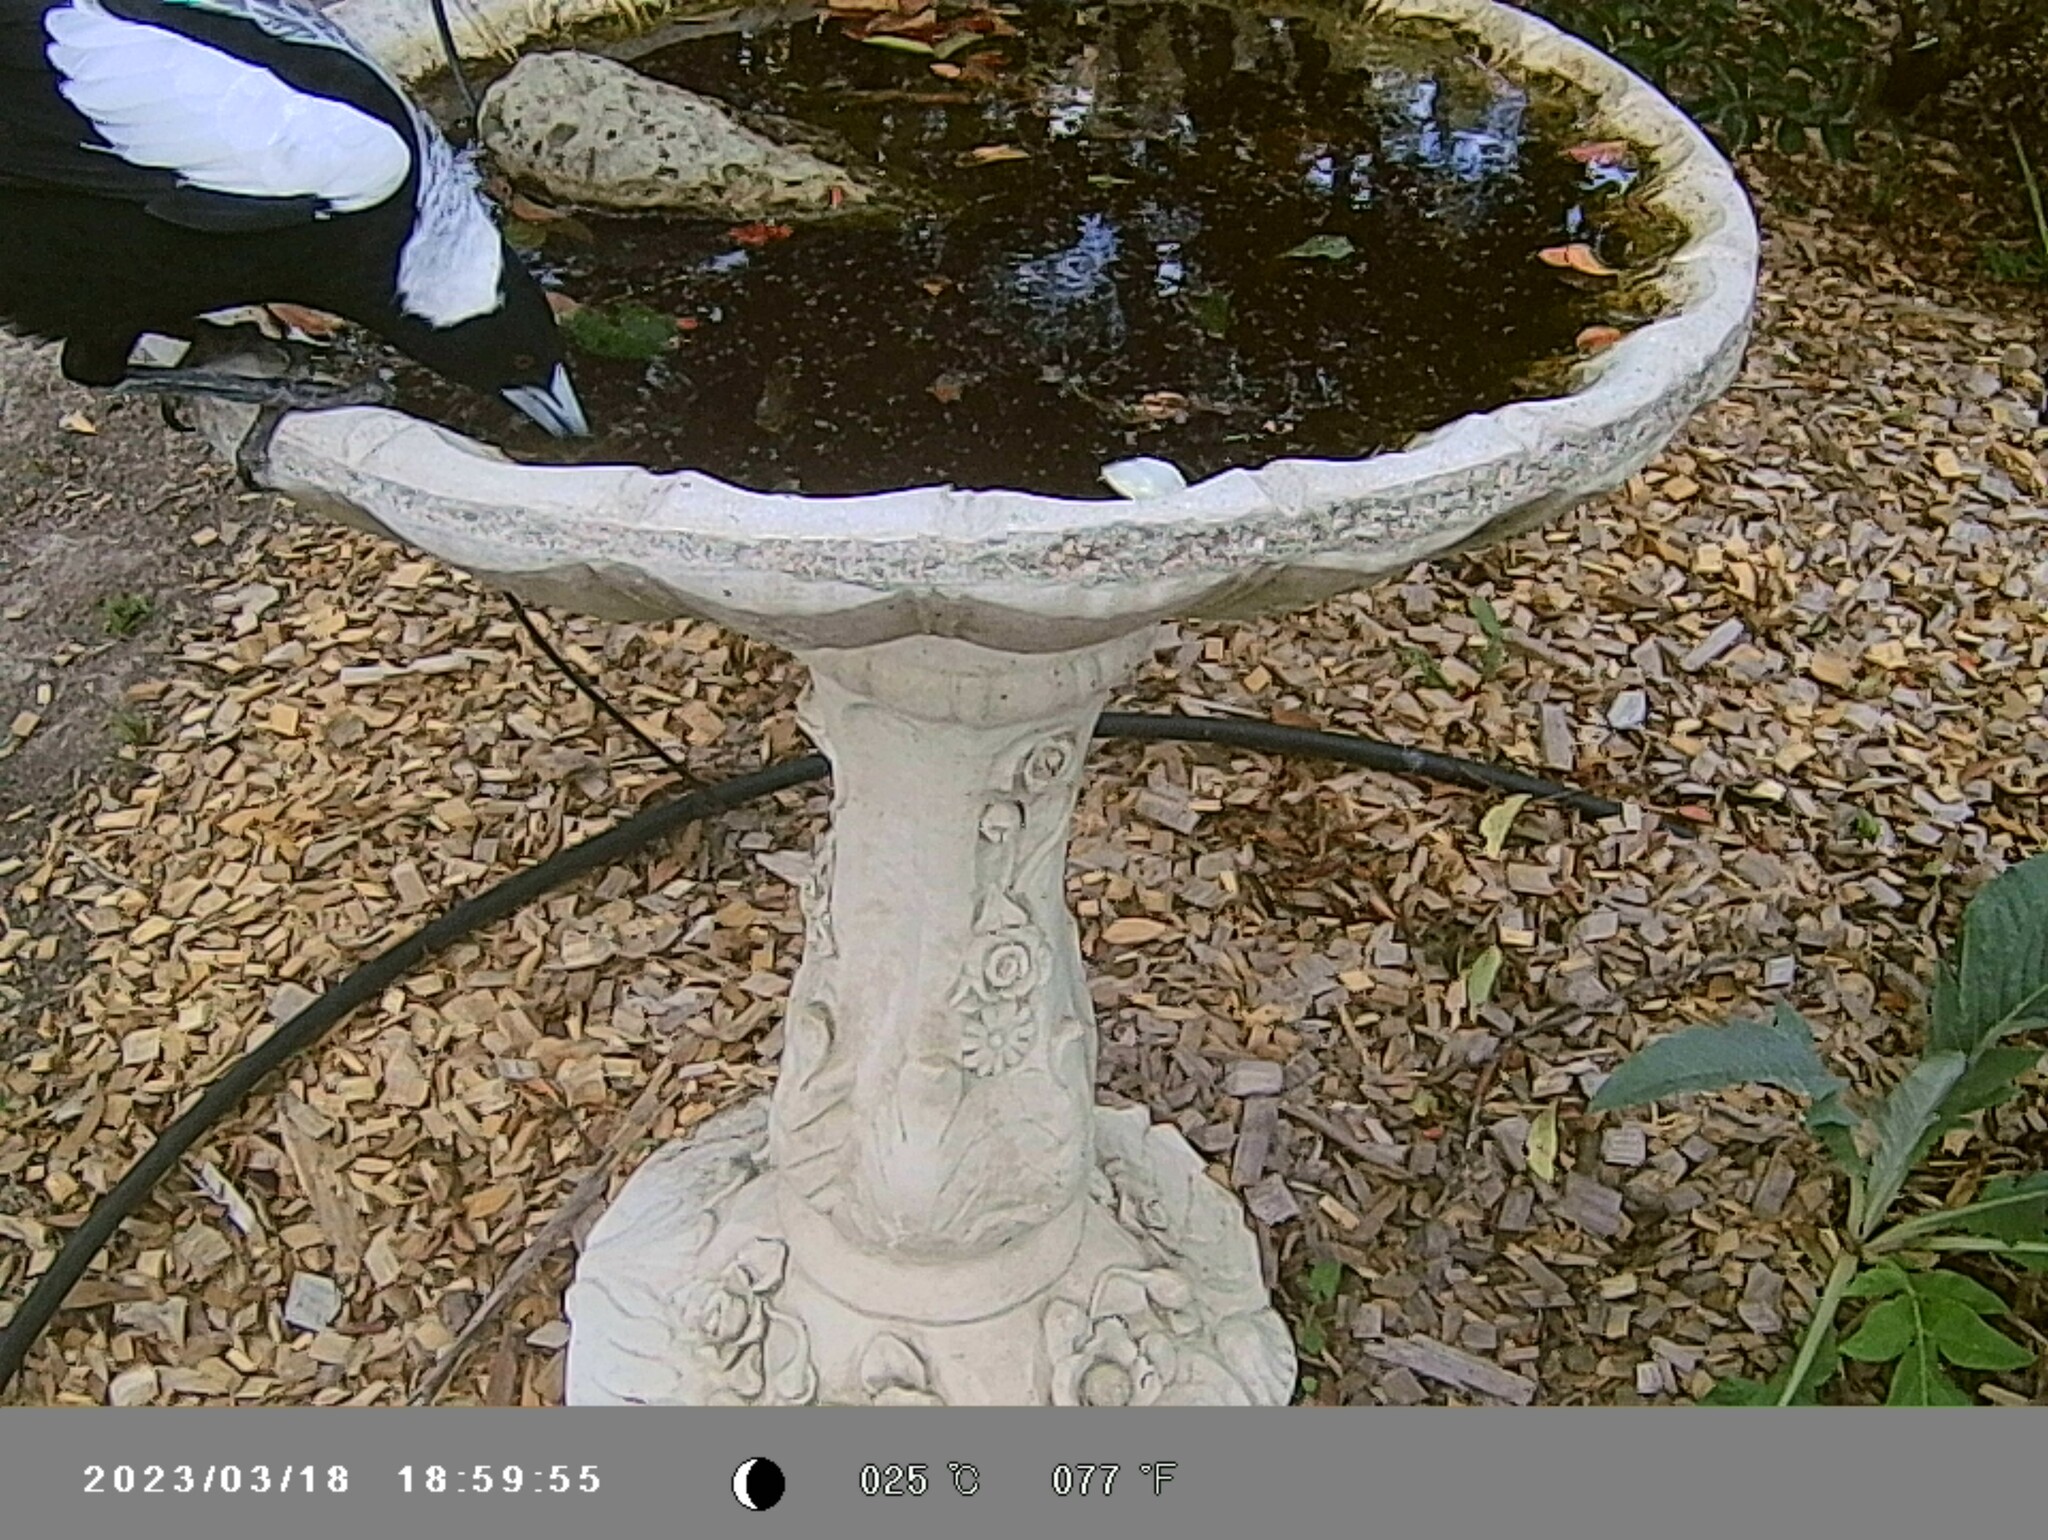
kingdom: Animalia
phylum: Chordata
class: Aves
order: Passeriformes
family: Cracticidae
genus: Gymnorhina
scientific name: Gymnorhina tibicen
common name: Australian magpie
